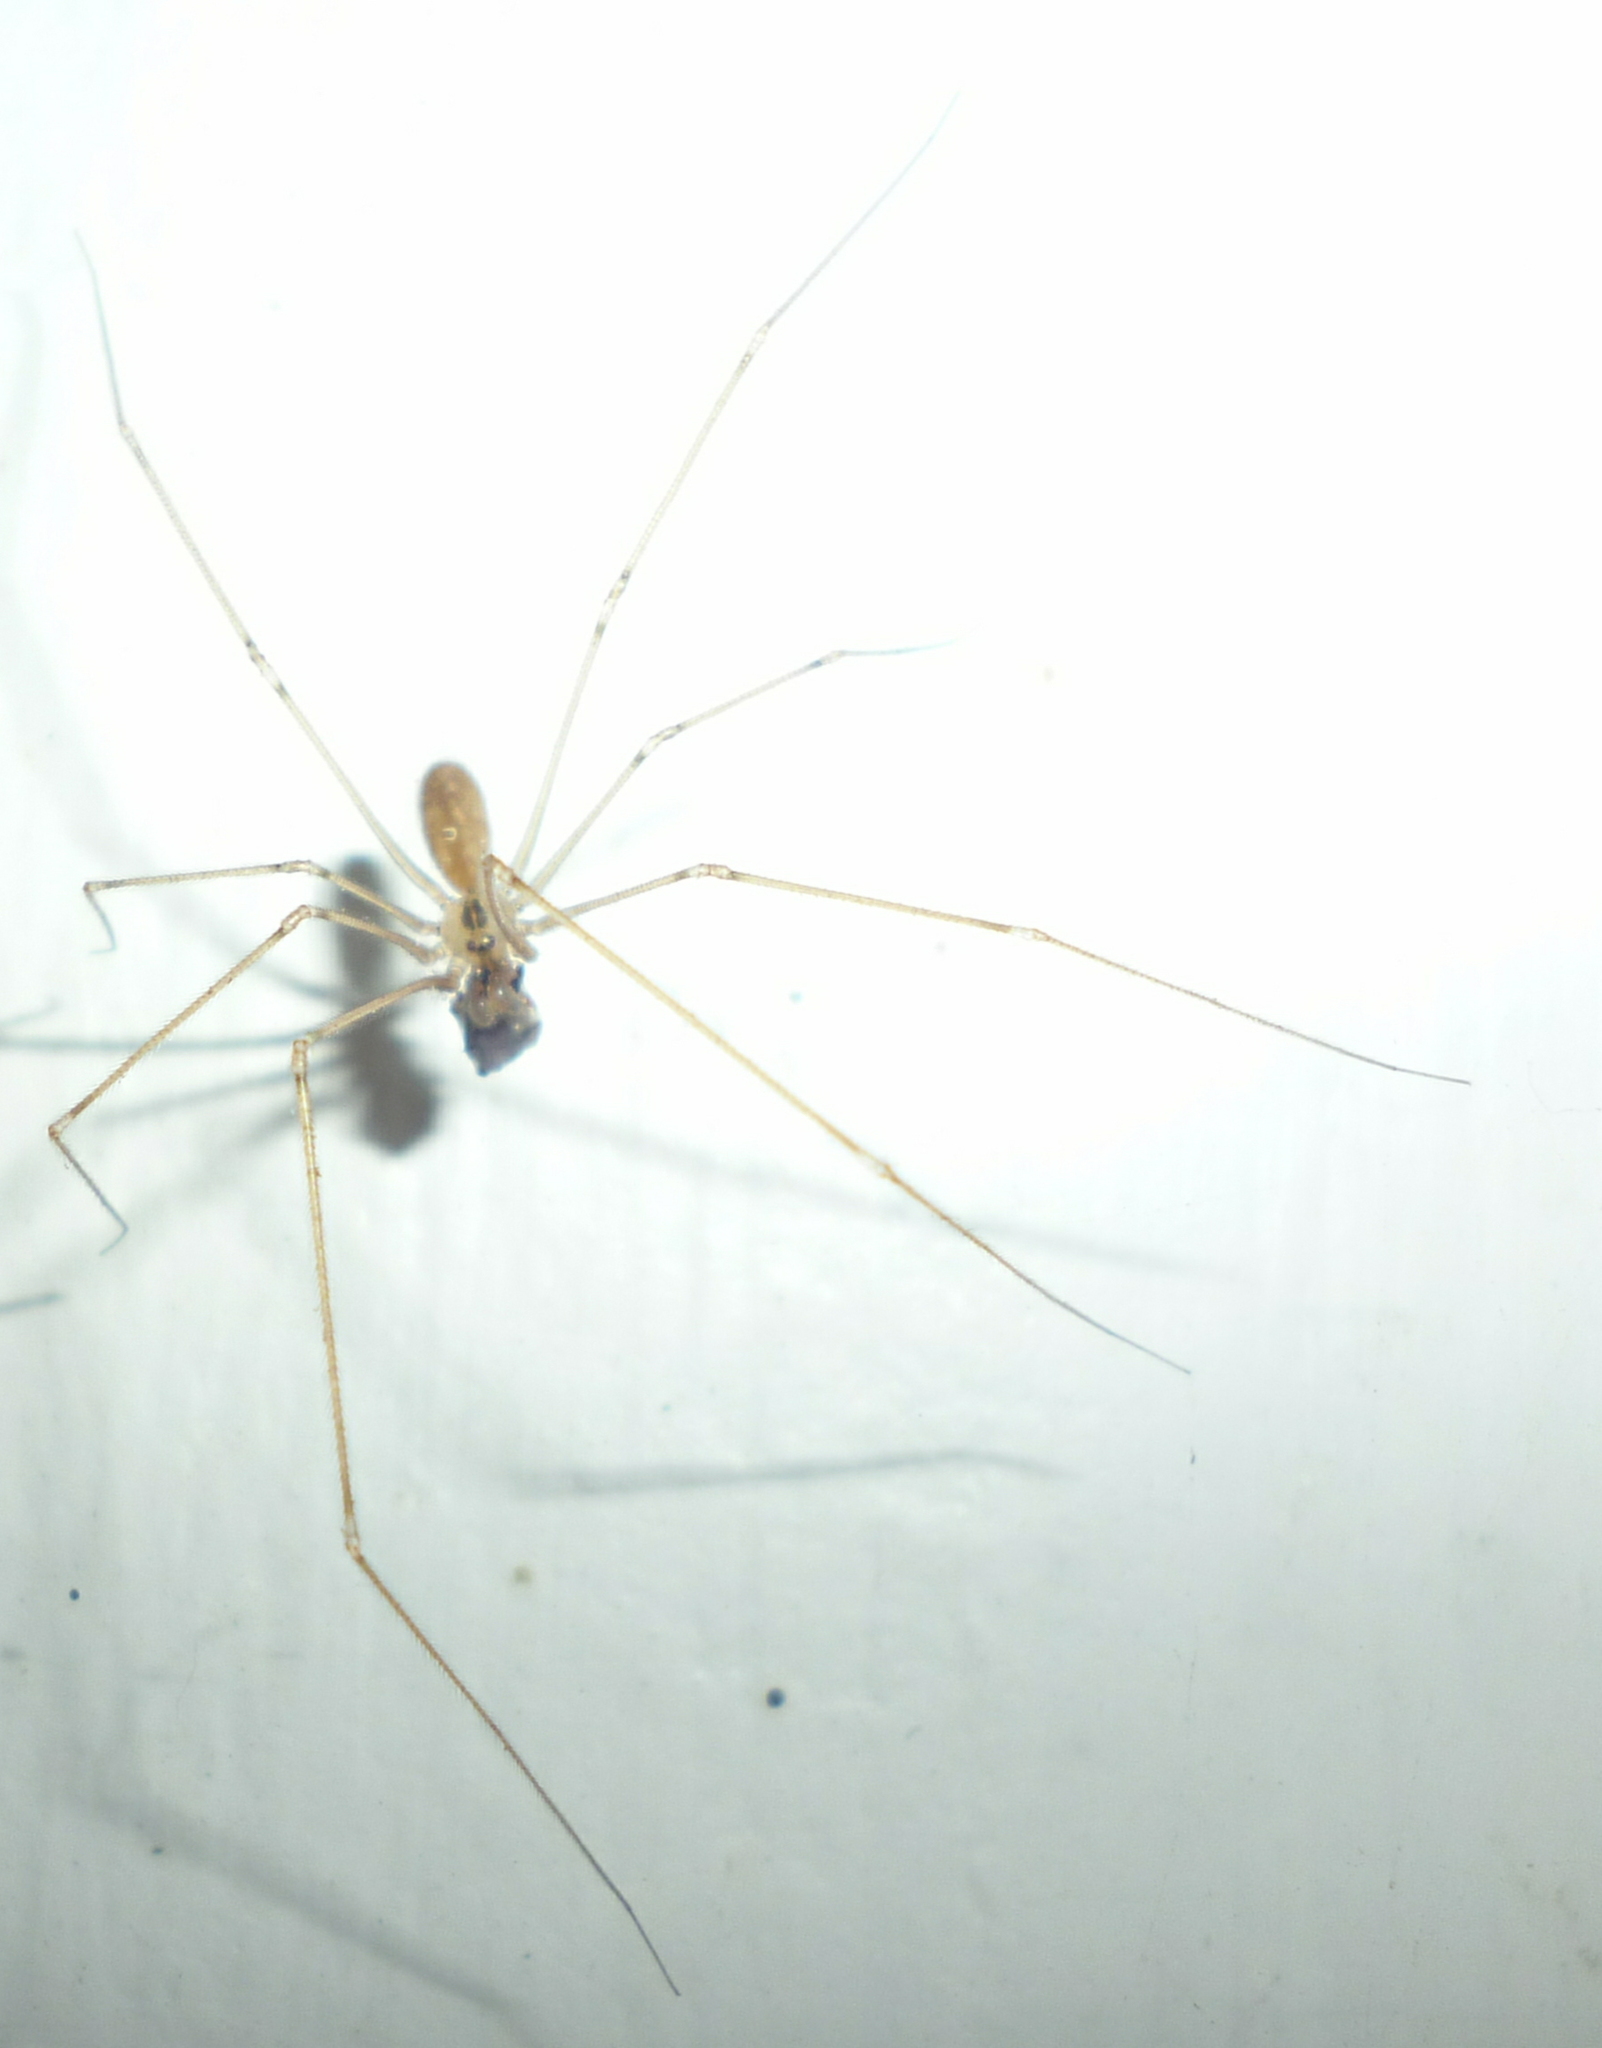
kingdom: Animalia
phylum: Arthropoda
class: Arachnida
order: Araneae
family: Pholcidae
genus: Pholcus
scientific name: Pholcus manueli
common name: Cellar spider
